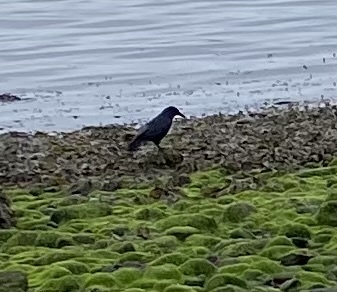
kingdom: Animalia
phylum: Chordata
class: Aves
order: Passeriformes
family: Corvidae
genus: Corvus
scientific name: Corvus corone
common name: Carrion crow
